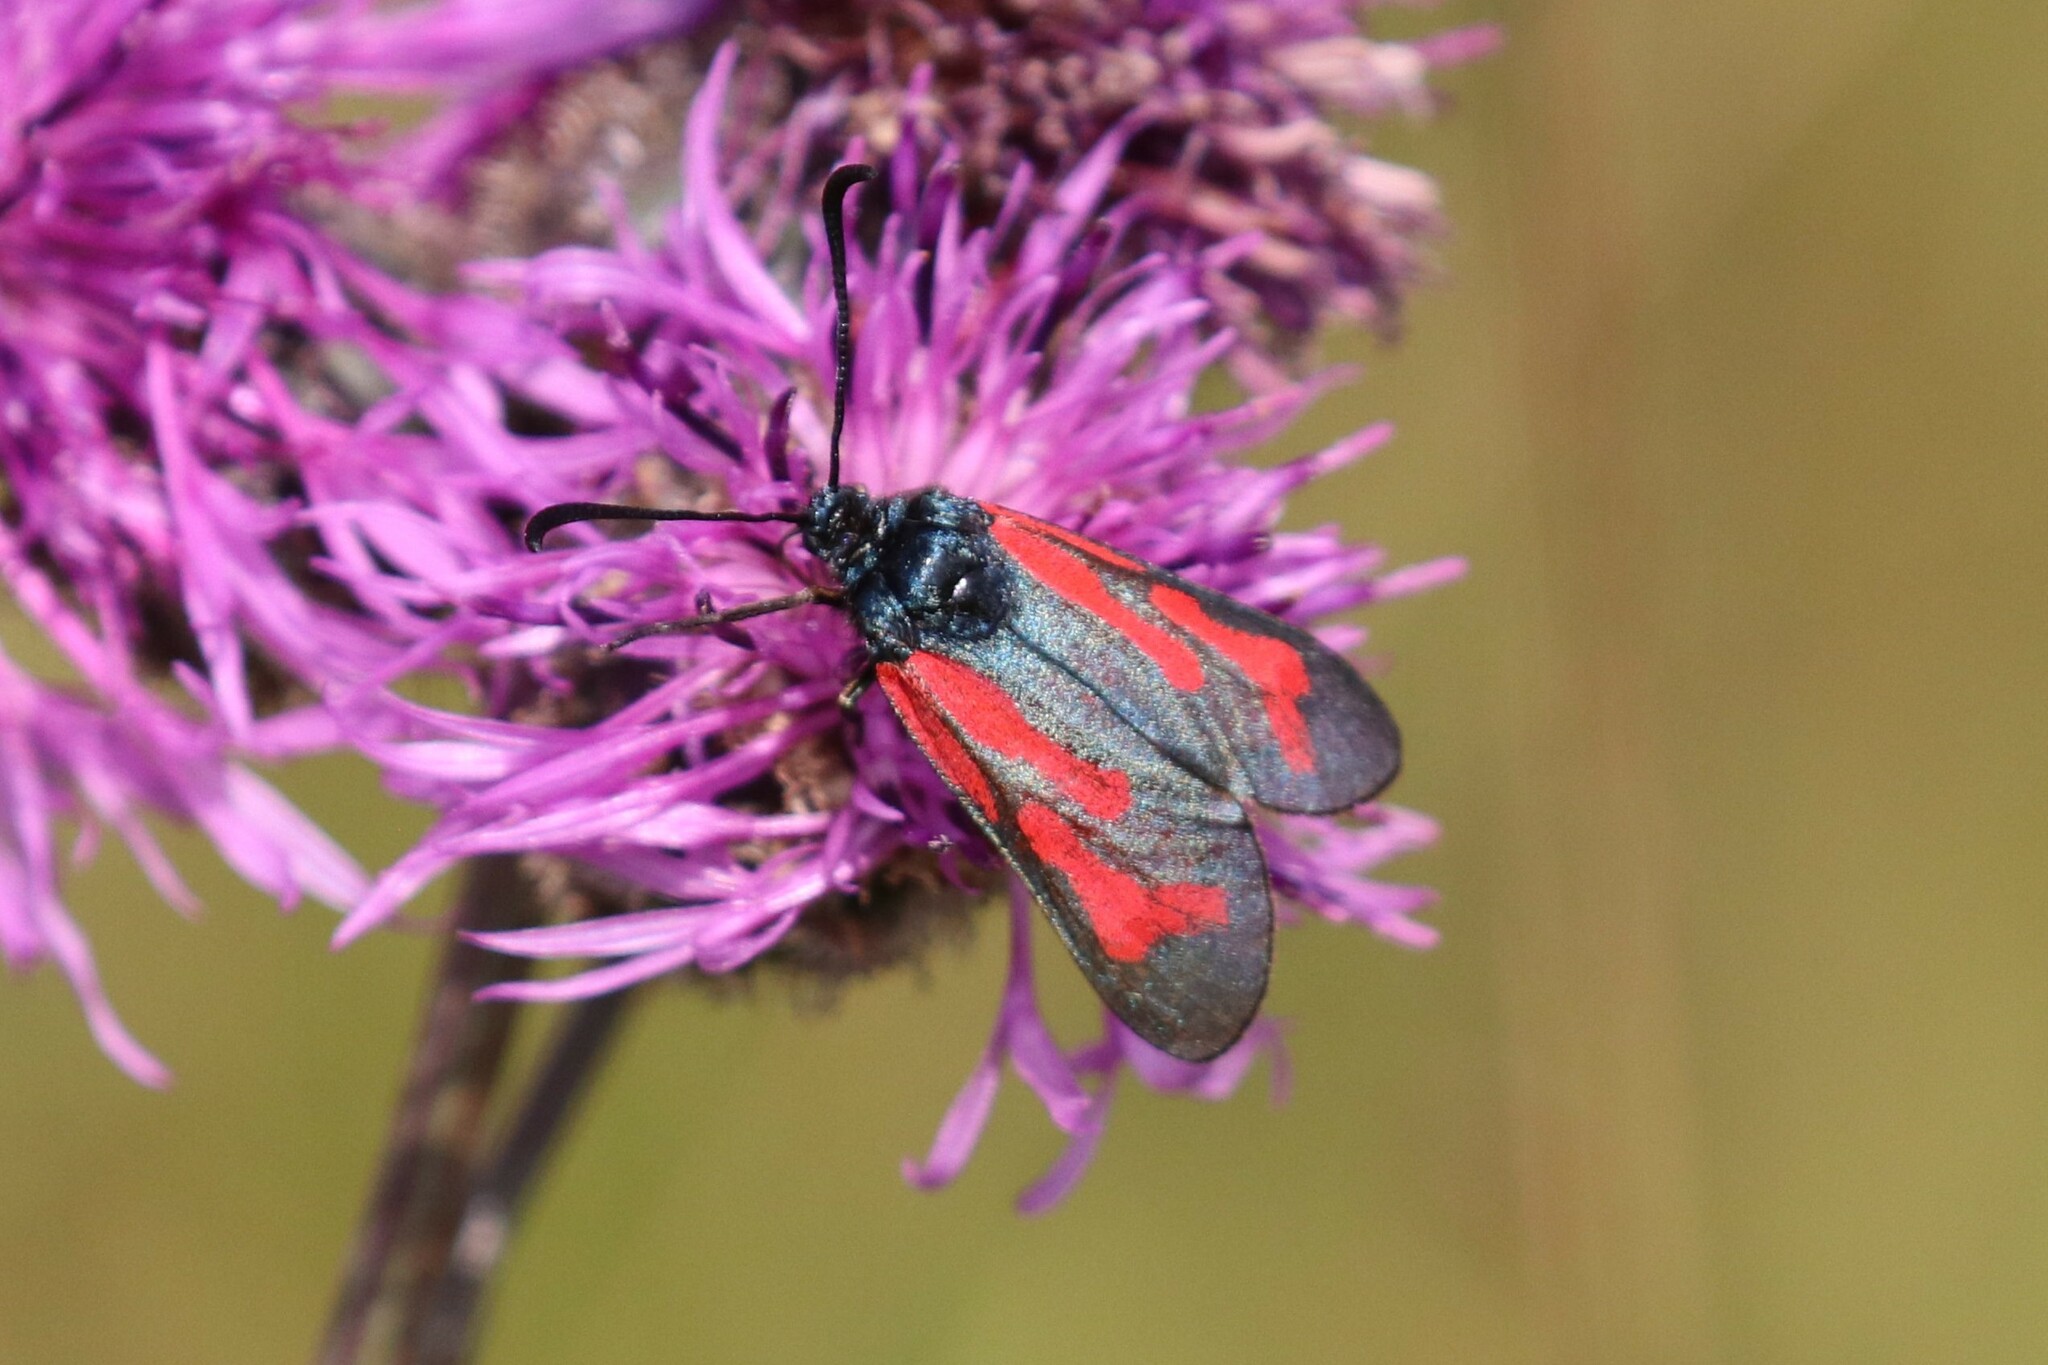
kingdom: Animalia
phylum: Arthropoda
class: Insecta
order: Lepidoptera
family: Zygaenidae
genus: Zygaena
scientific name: Zygaena minos
